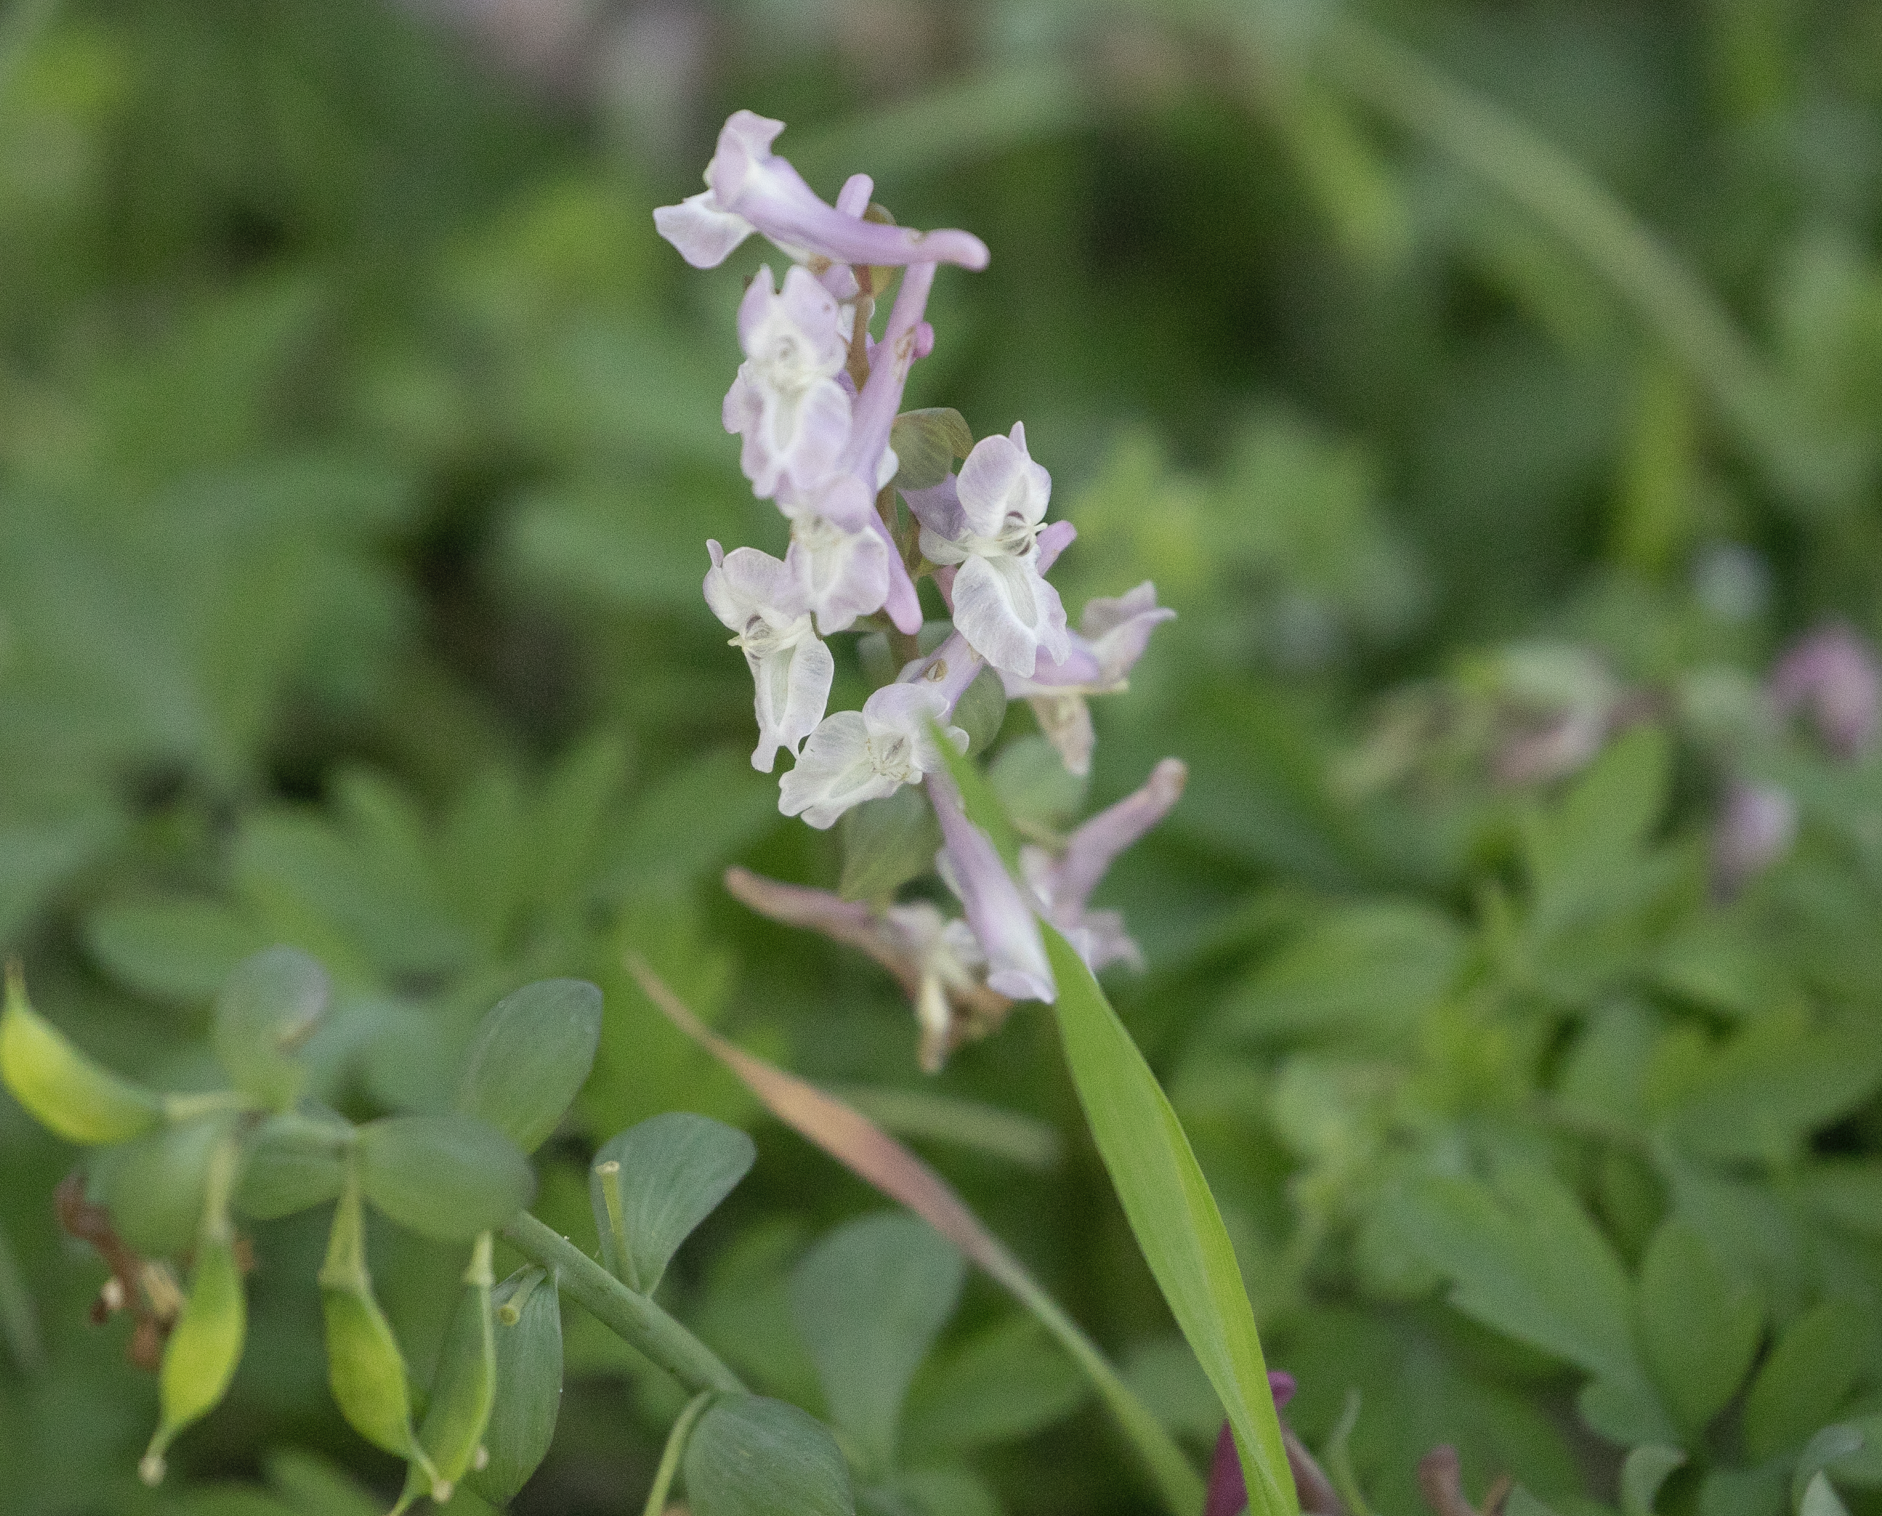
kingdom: Plantae
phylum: Tracheophyta
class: Magnoliopsida
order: Ranunculales
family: Papaveraceae
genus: Corydalis
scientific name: Corydalis cava
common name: Hollowroot
